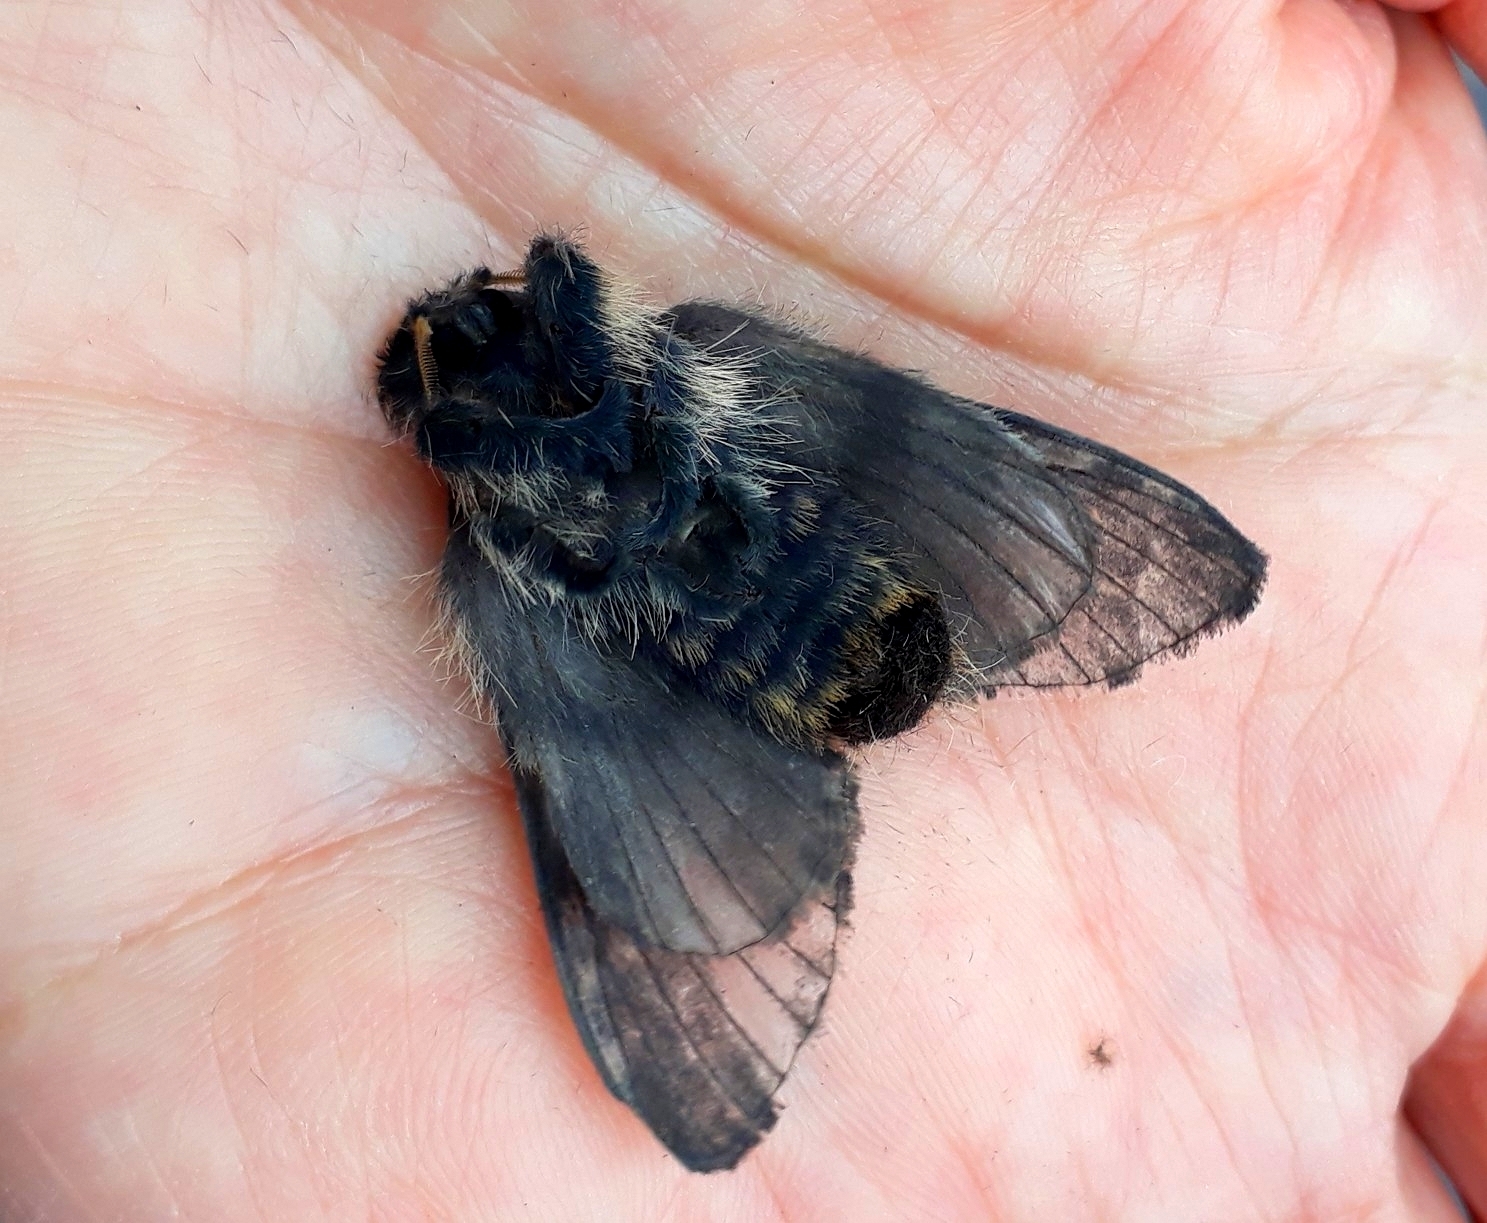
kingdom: Animalia
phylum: Arthropoda
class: Insecta
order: Lepidoptera
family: Lasiocampidae
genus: Labedera
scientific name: Labedera
